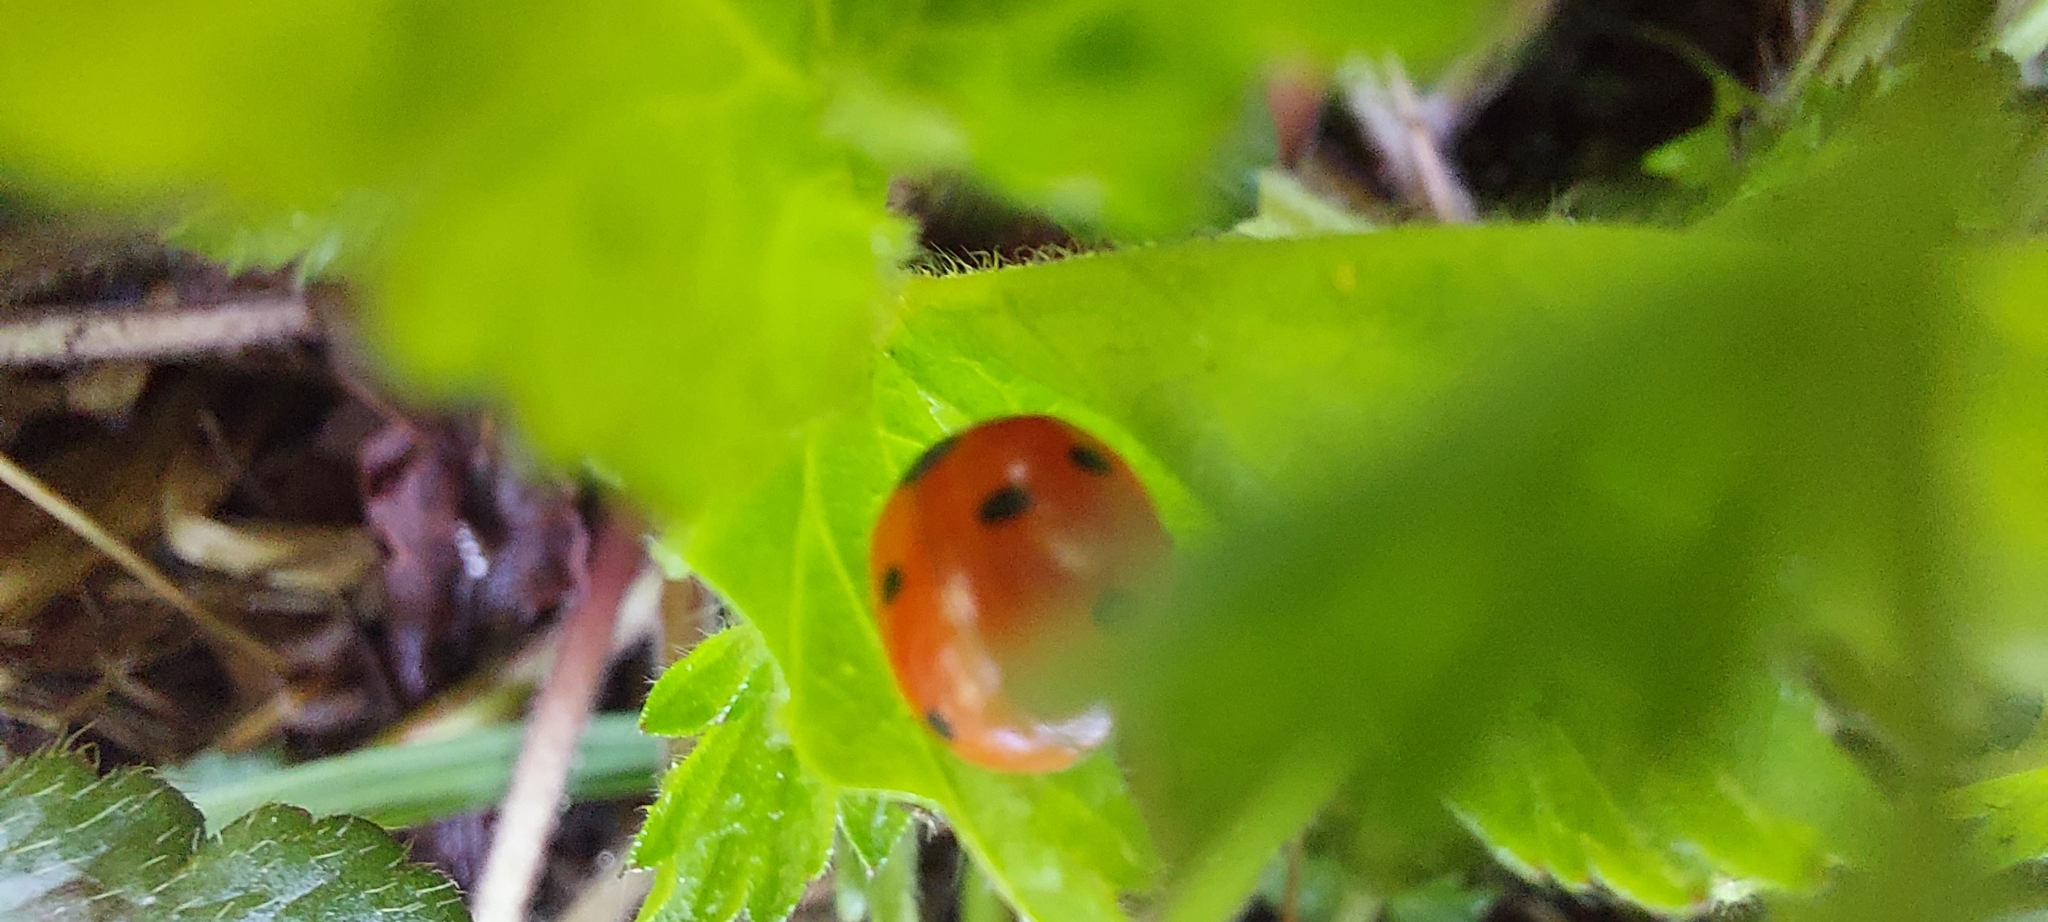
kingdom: Animalia
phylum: Arthropoda
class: Insecta
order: Coleoptera
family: Coccinellidae
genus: Coccinella
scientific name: Coccinella septempunctata
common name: Sevenspotted lady beetle
